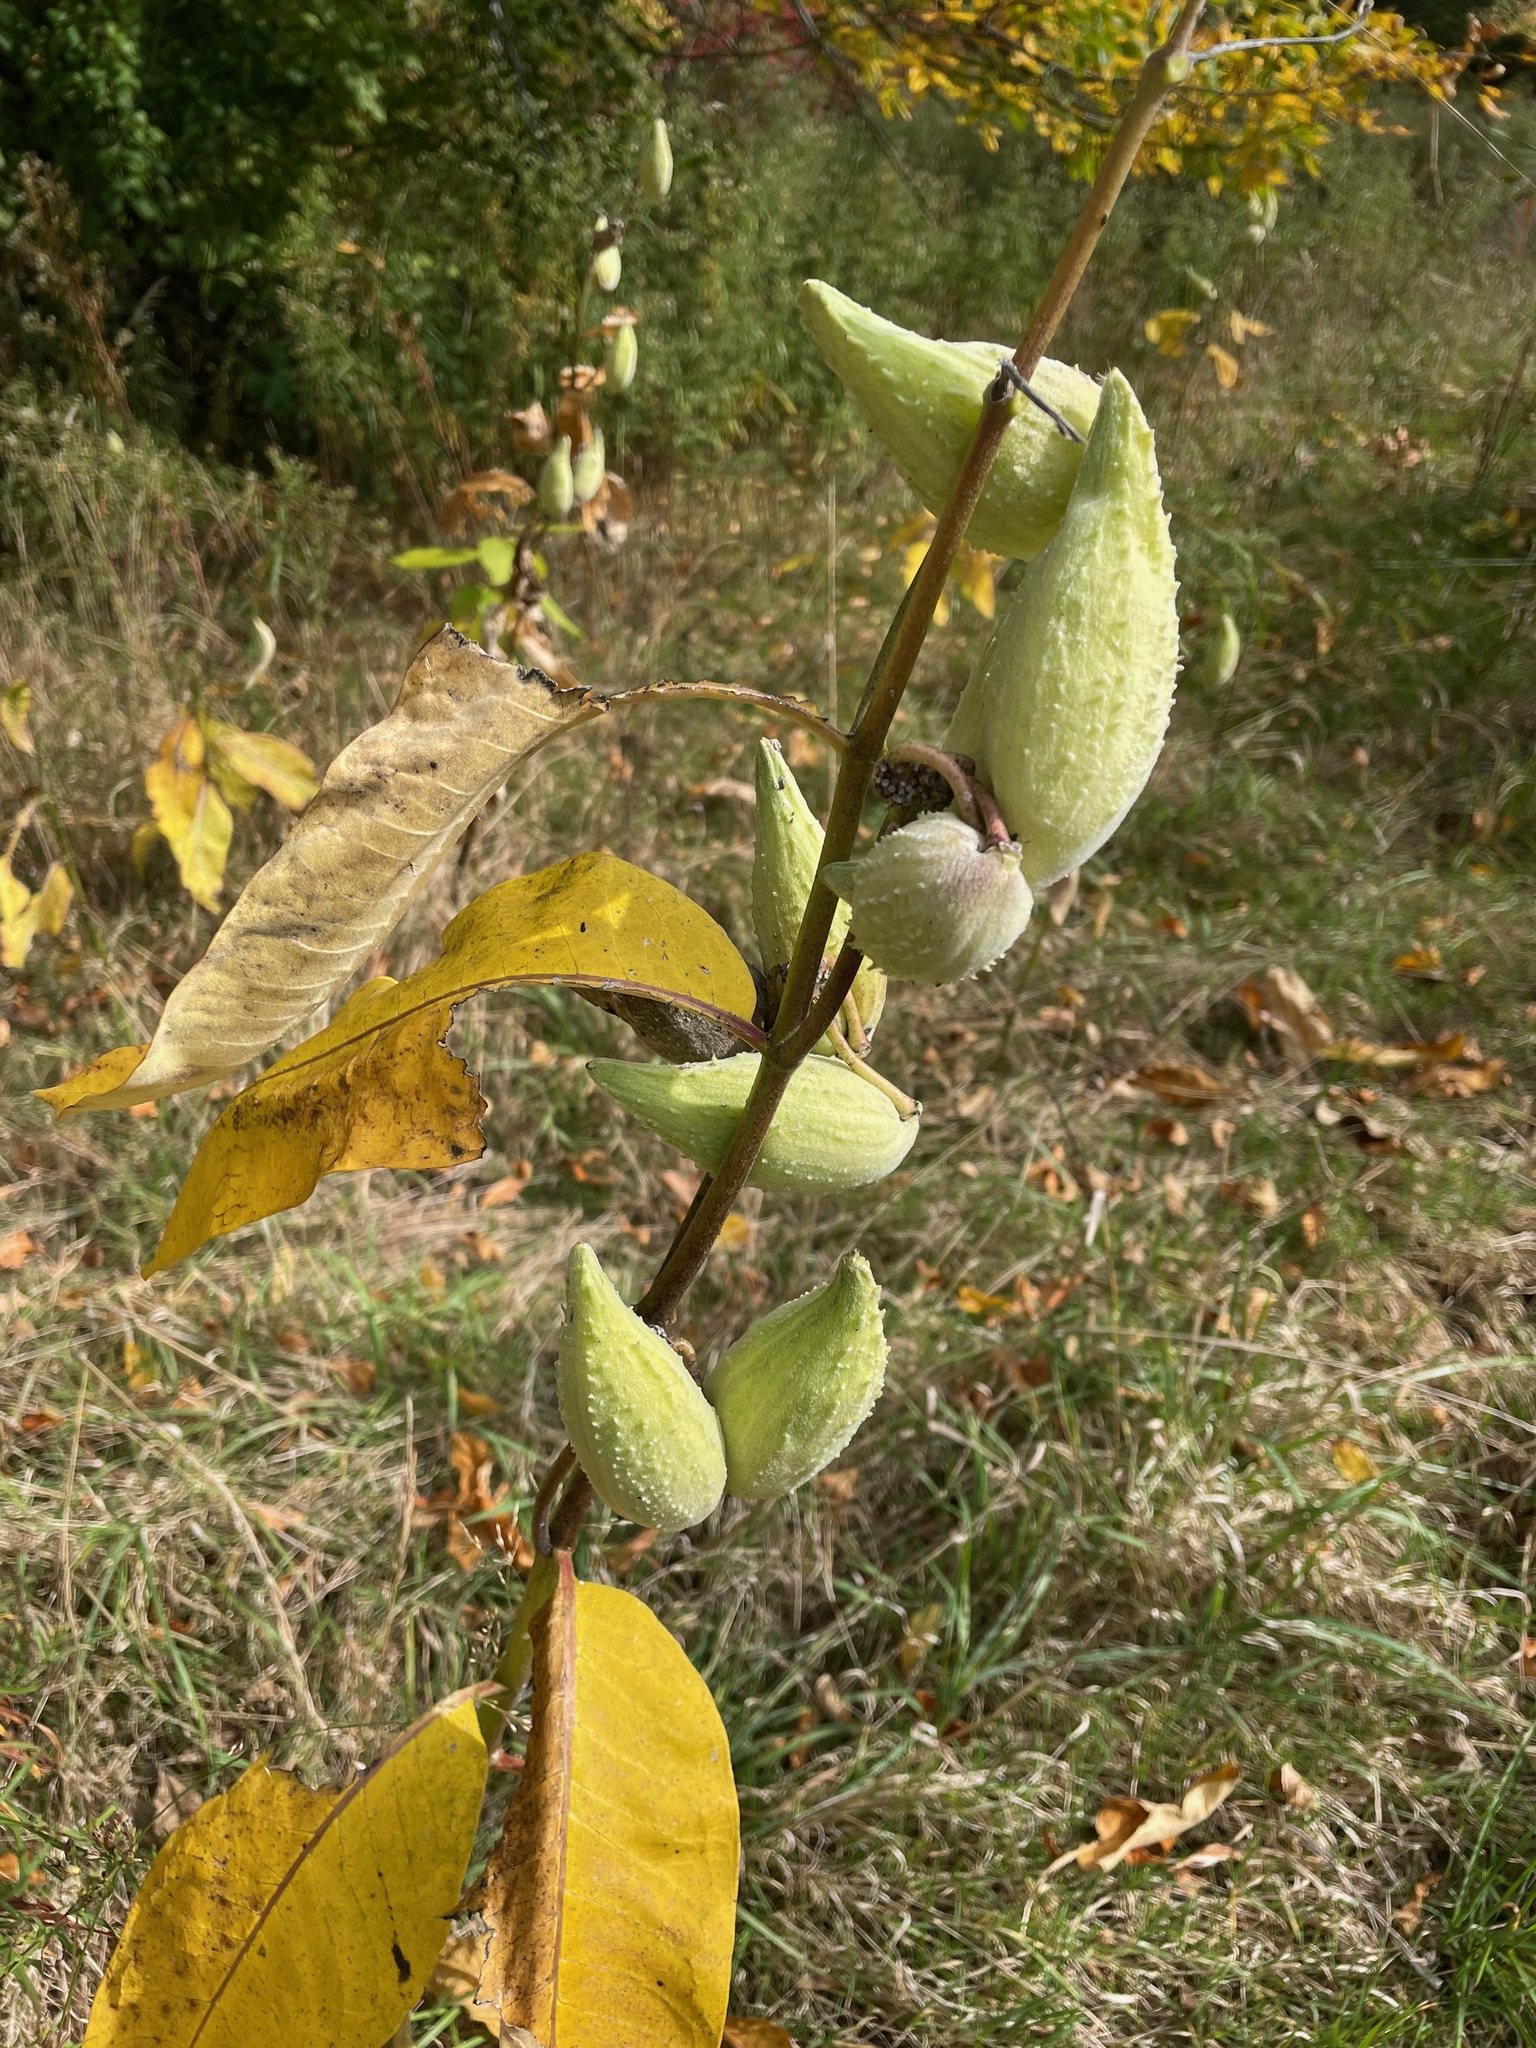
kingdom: Plantae
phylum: Tracheophyta
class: Magnoliopsida
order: Gentianales
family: Apocynaceae
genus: Asclepias
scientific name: Asclepias syriaca
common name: Common milkweed
